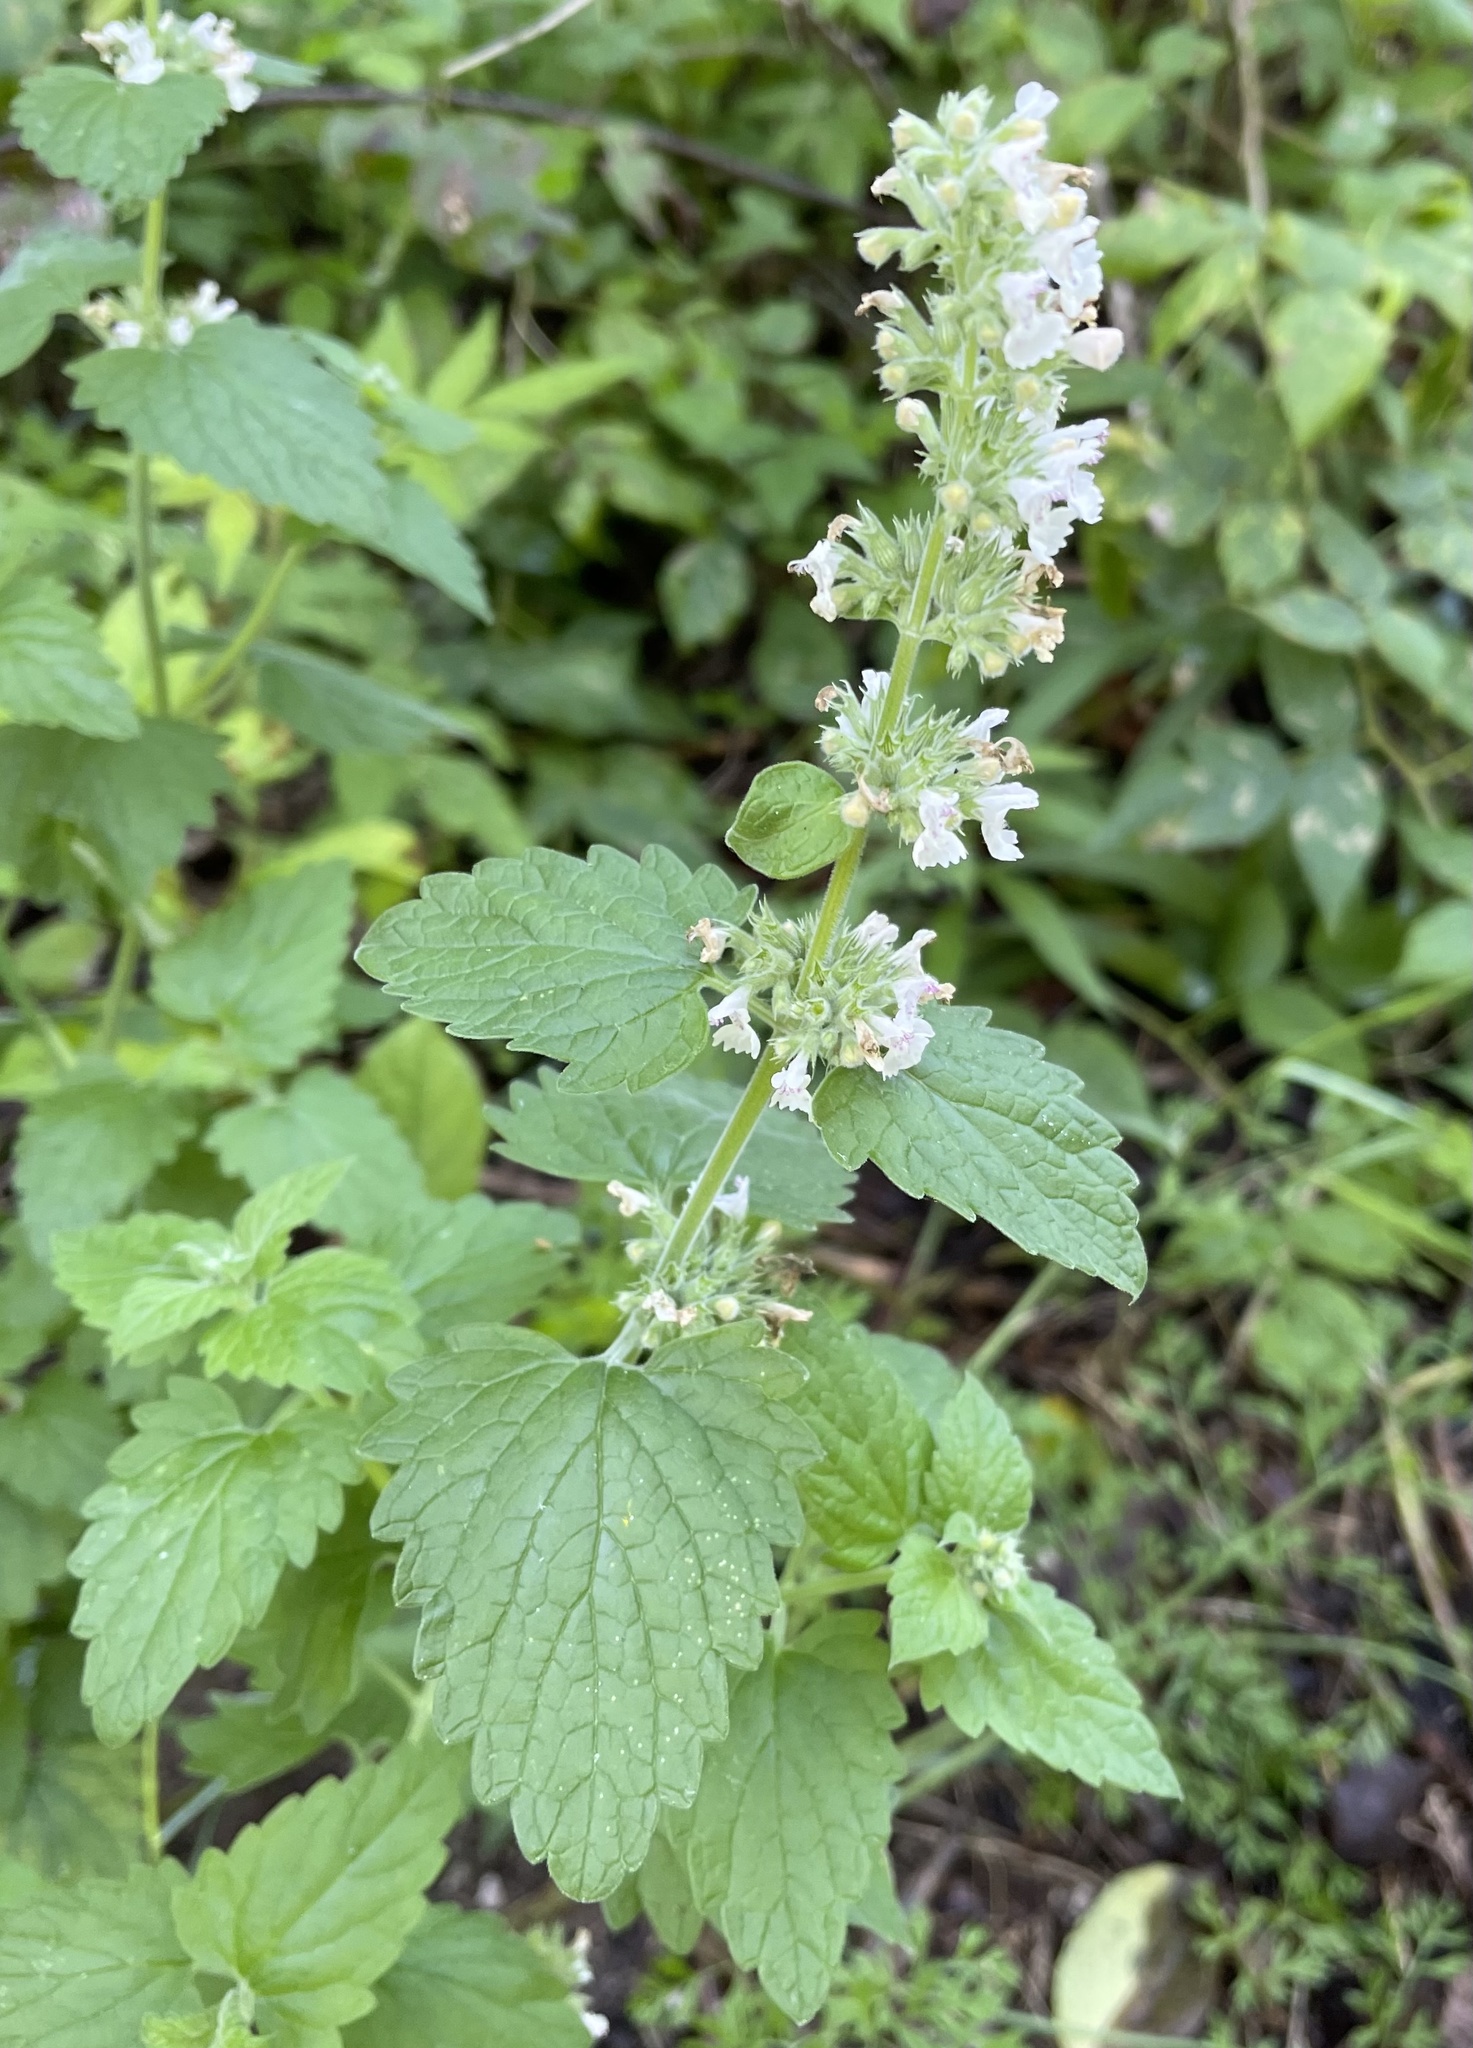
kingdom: Plantae
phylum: Tracheophyta
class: Magnoliopsida
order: Lamiales
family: Lamiaceae
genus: Nepeta
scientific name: Nepeta cataria
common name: Catnip
